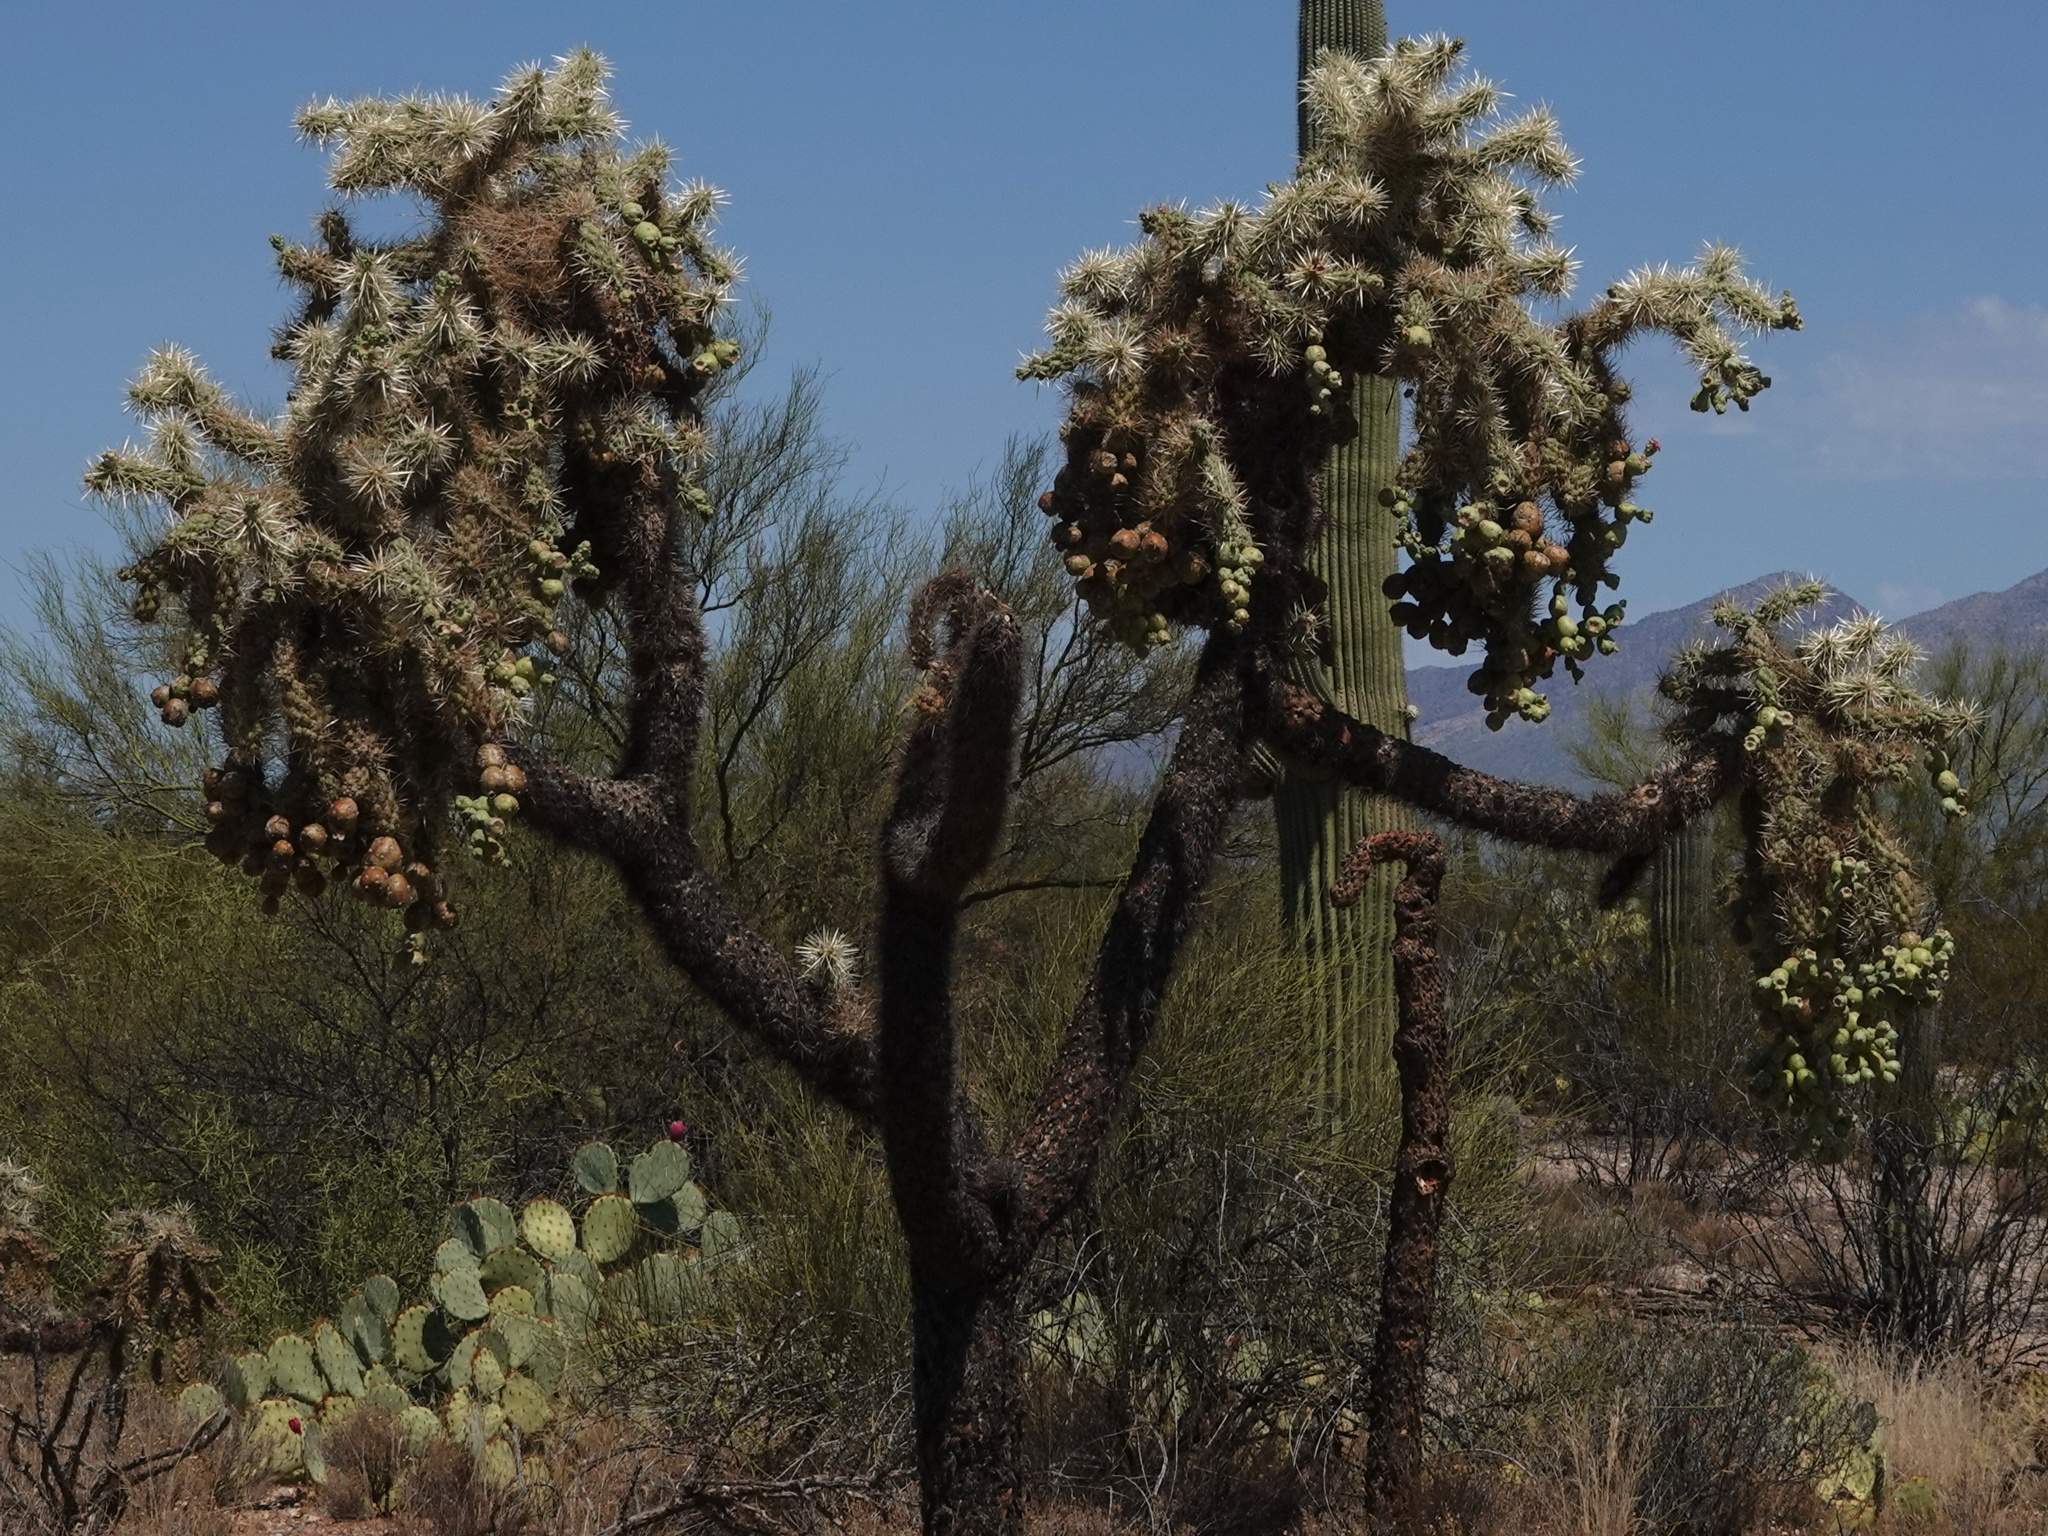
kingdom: Plantae
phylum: Tracheophyta
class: Magnoliopsida
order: Caryophyllales
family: Cactaceae
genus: Cylindropuntia
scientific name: Cylindropuntia fulgida
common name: Jumping cholla
